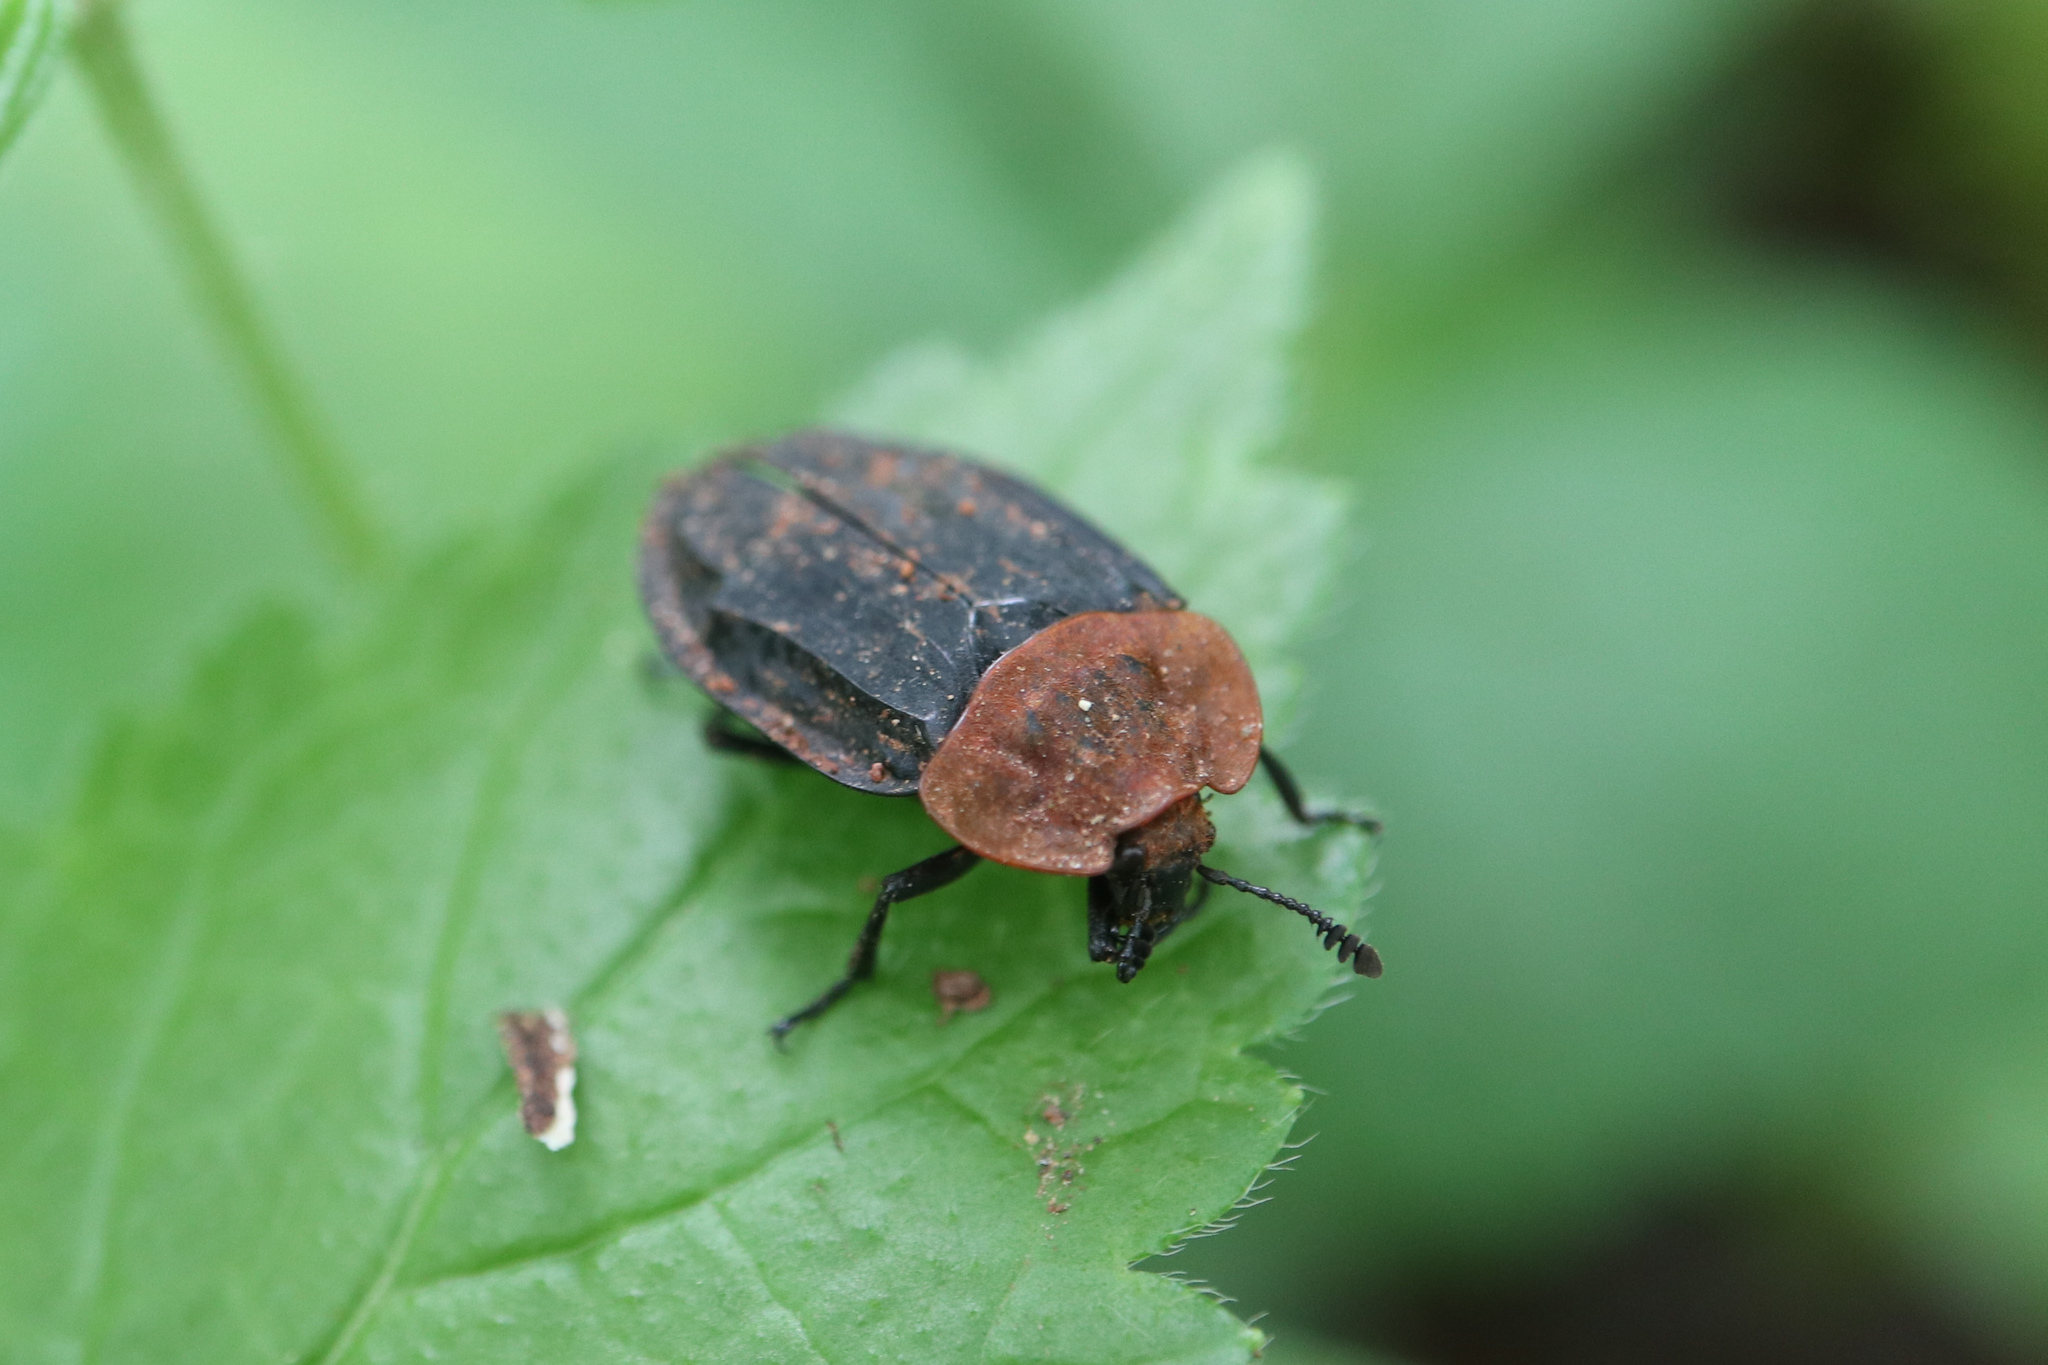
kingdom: Animalia
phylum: Arthropoda
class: Insecta
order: Coleoptera
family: Staphylinidae
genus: Oiceoptoma
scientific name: Oiceoptoma thoracicum
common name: Red-breasted carrion beetle
